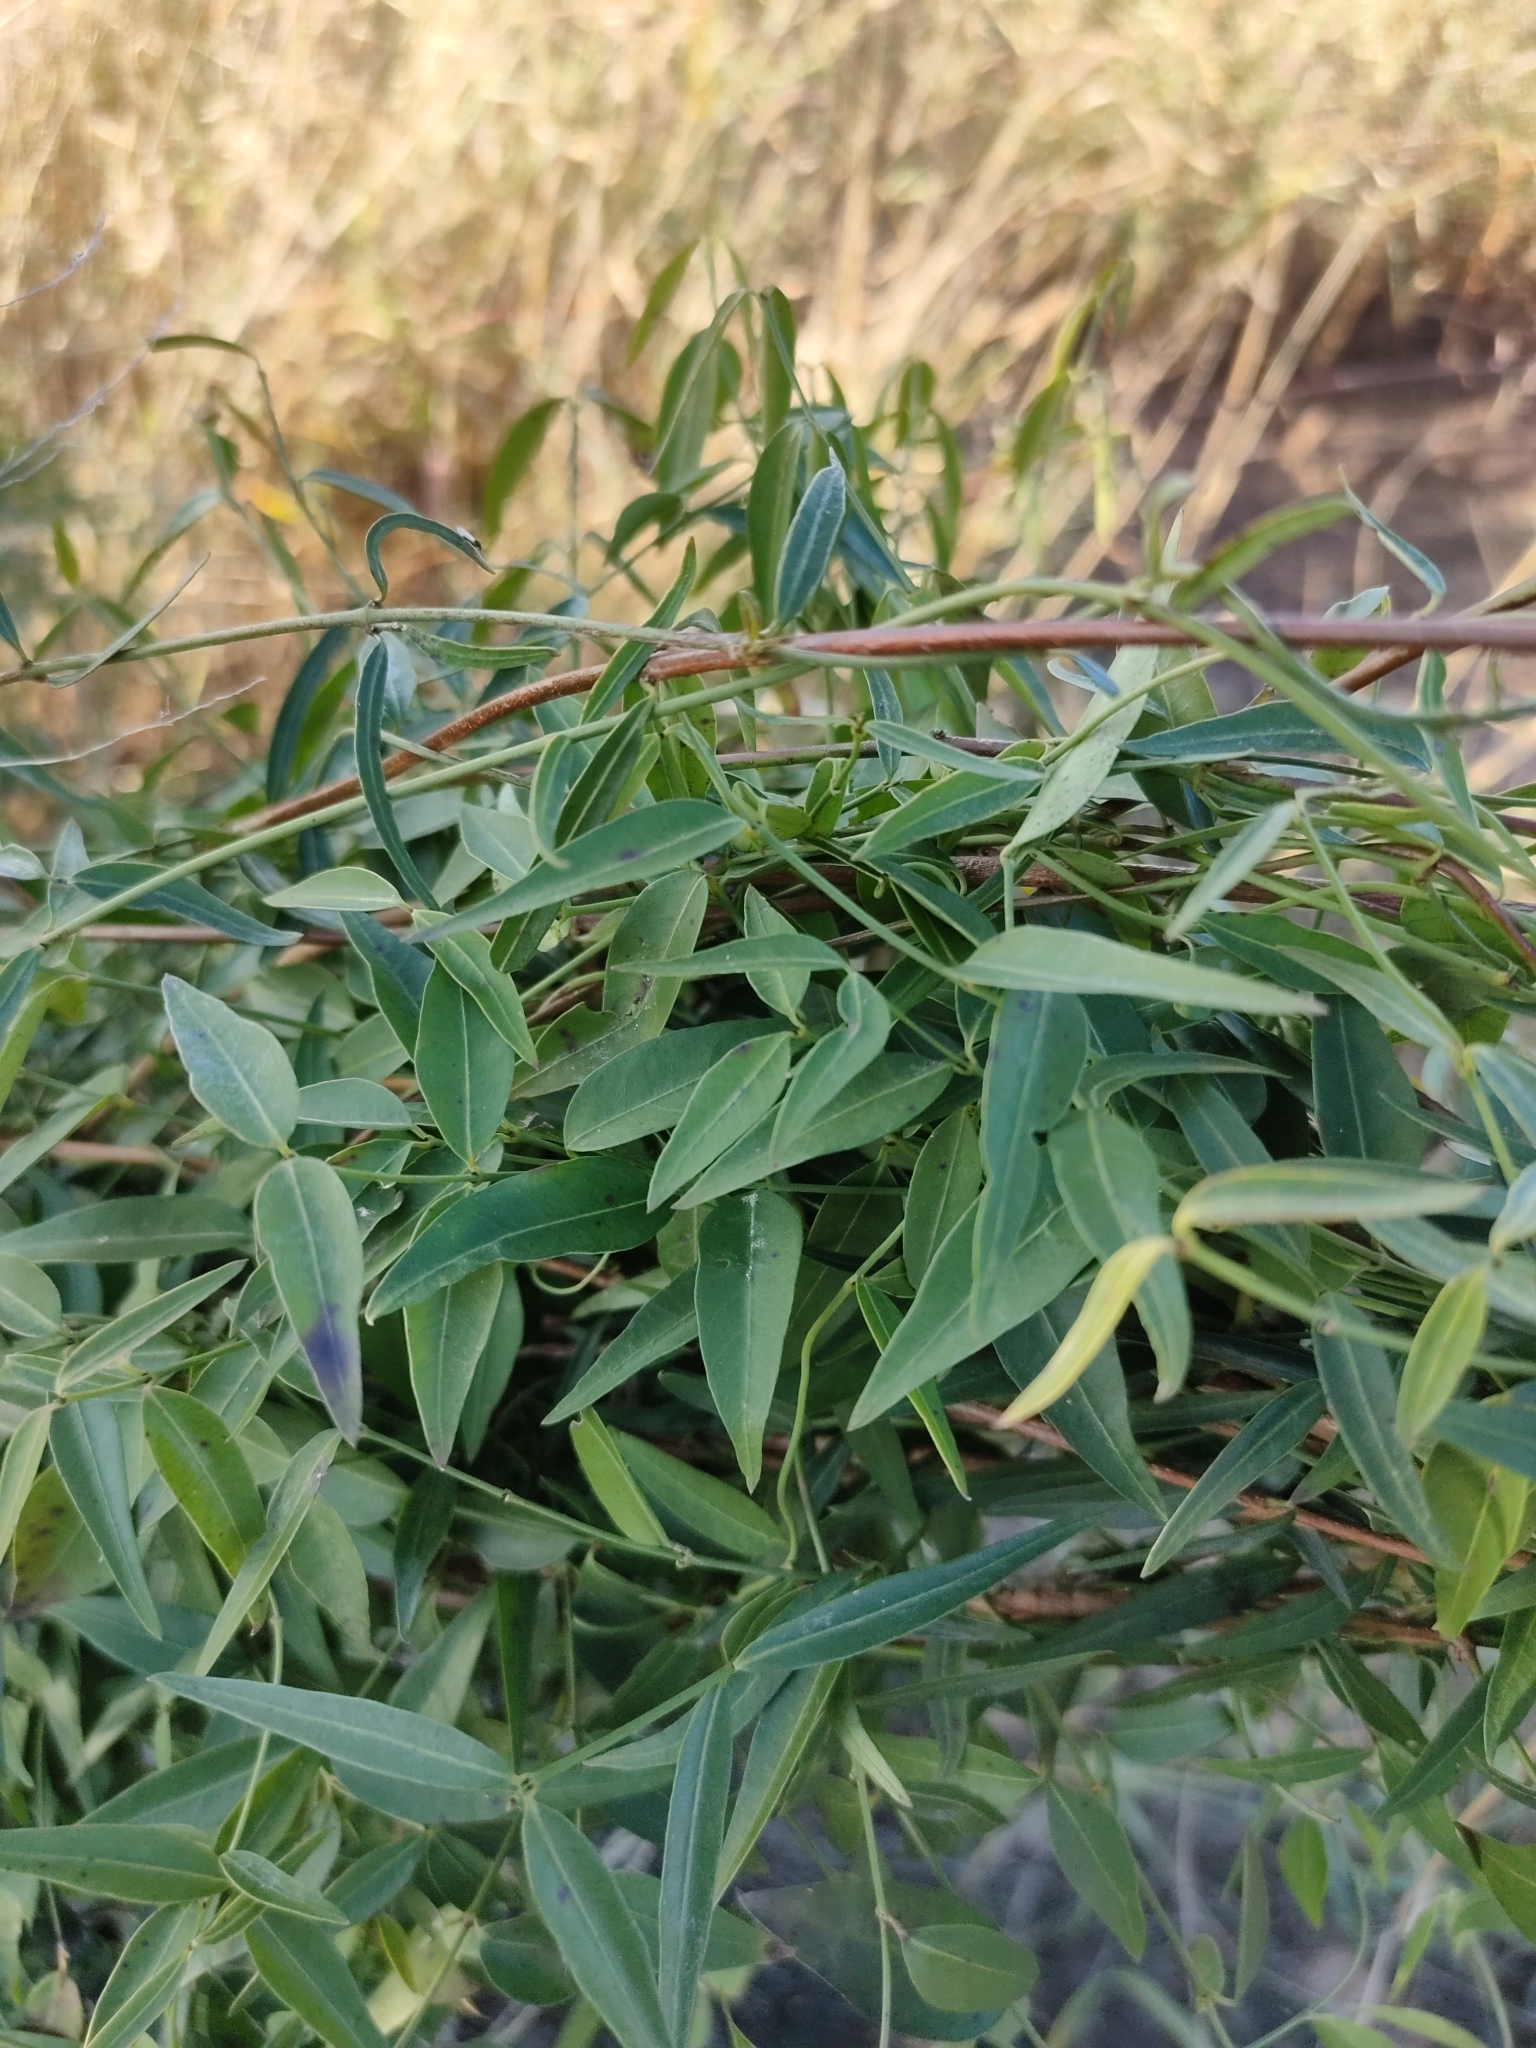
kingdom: Plantae
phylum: Tracheophyta
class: Magnoliopsida
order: Gentianales
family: Apocynaceae
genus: Secamone
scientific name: Secamone elliptica
